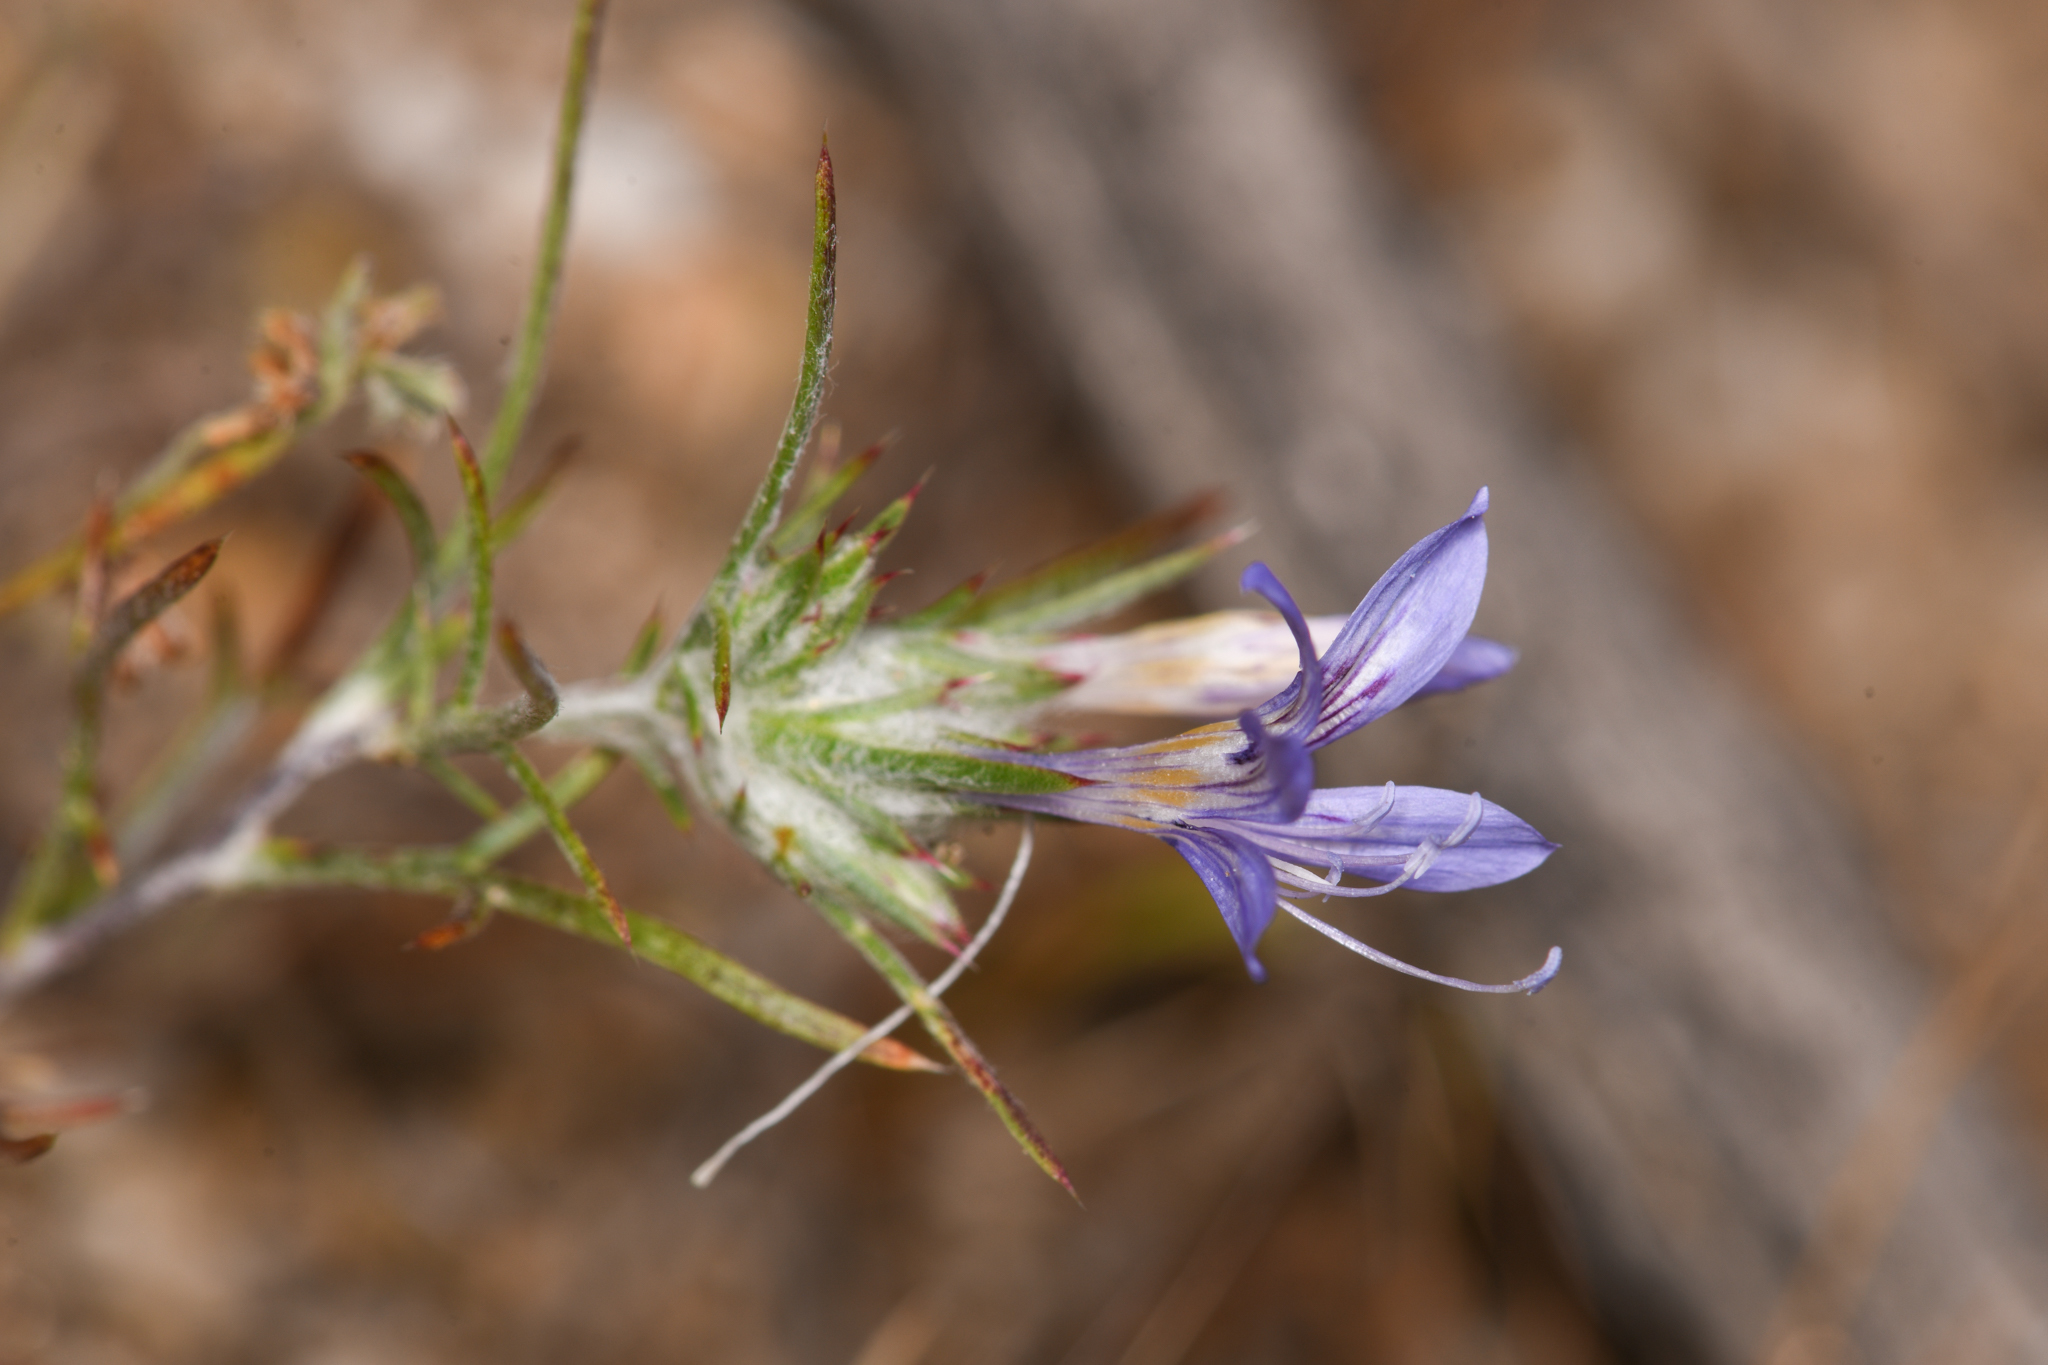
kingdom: Plantae
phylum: Tracheophyta
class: Magnoliopsida
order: Ericales
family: Polemoniaceae
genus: Eriastrum
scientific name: Eriastrum eremicum
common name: Desert eriastrum
